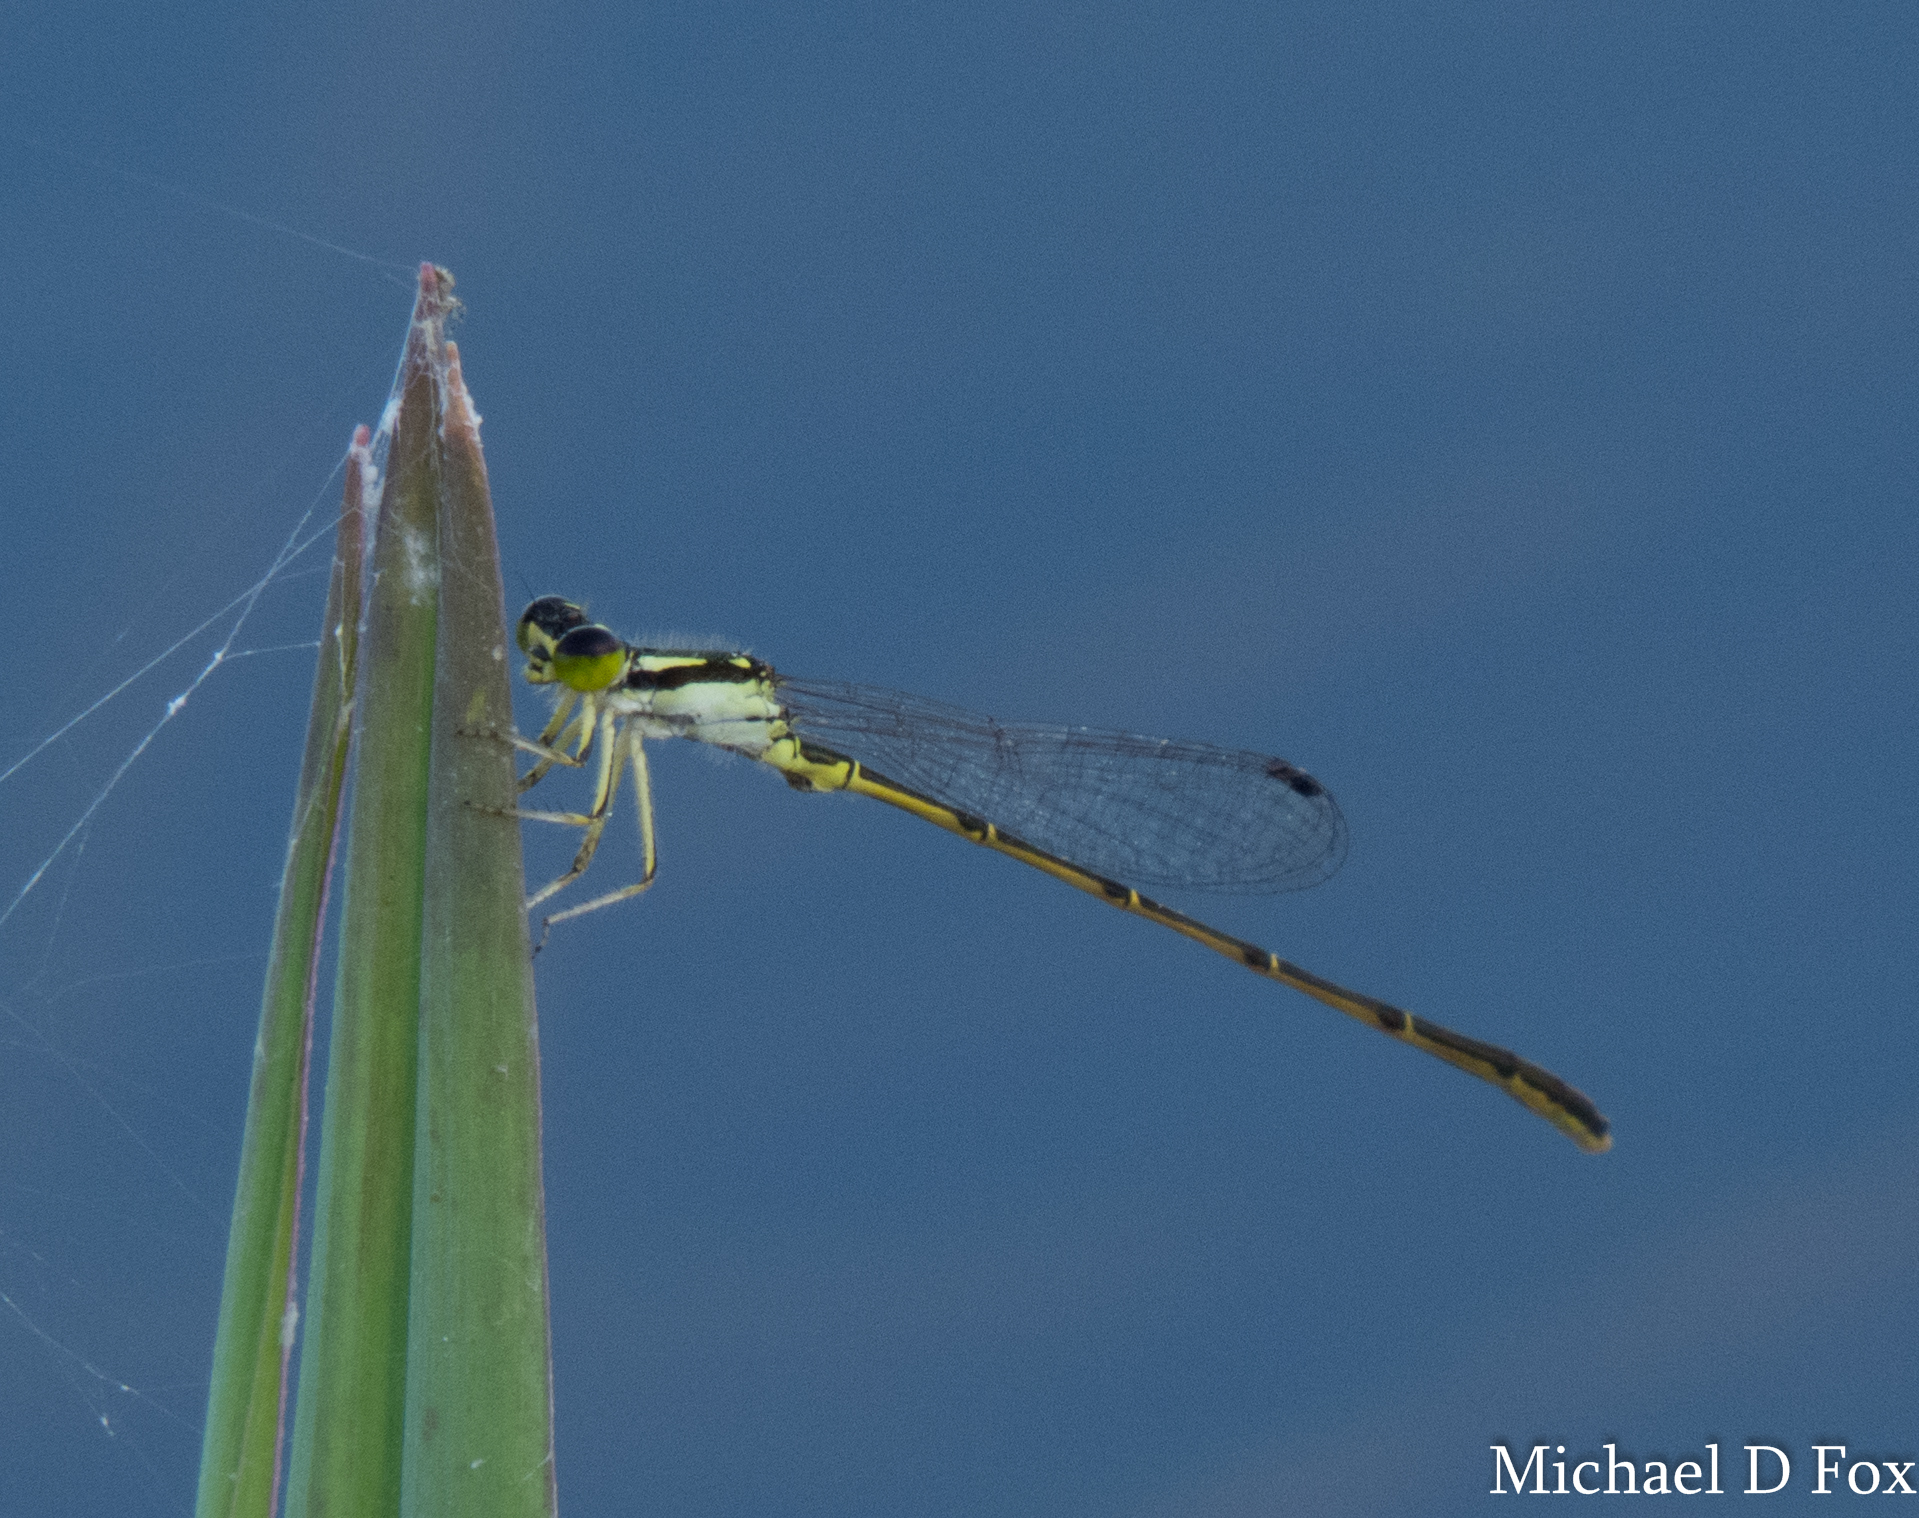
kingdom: Animalia
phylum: Arthropoda
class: Insecta
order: Odonata
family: Coenagrionidae
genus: Ischnura
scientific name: Ischnura posita
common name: Fragile forktail
